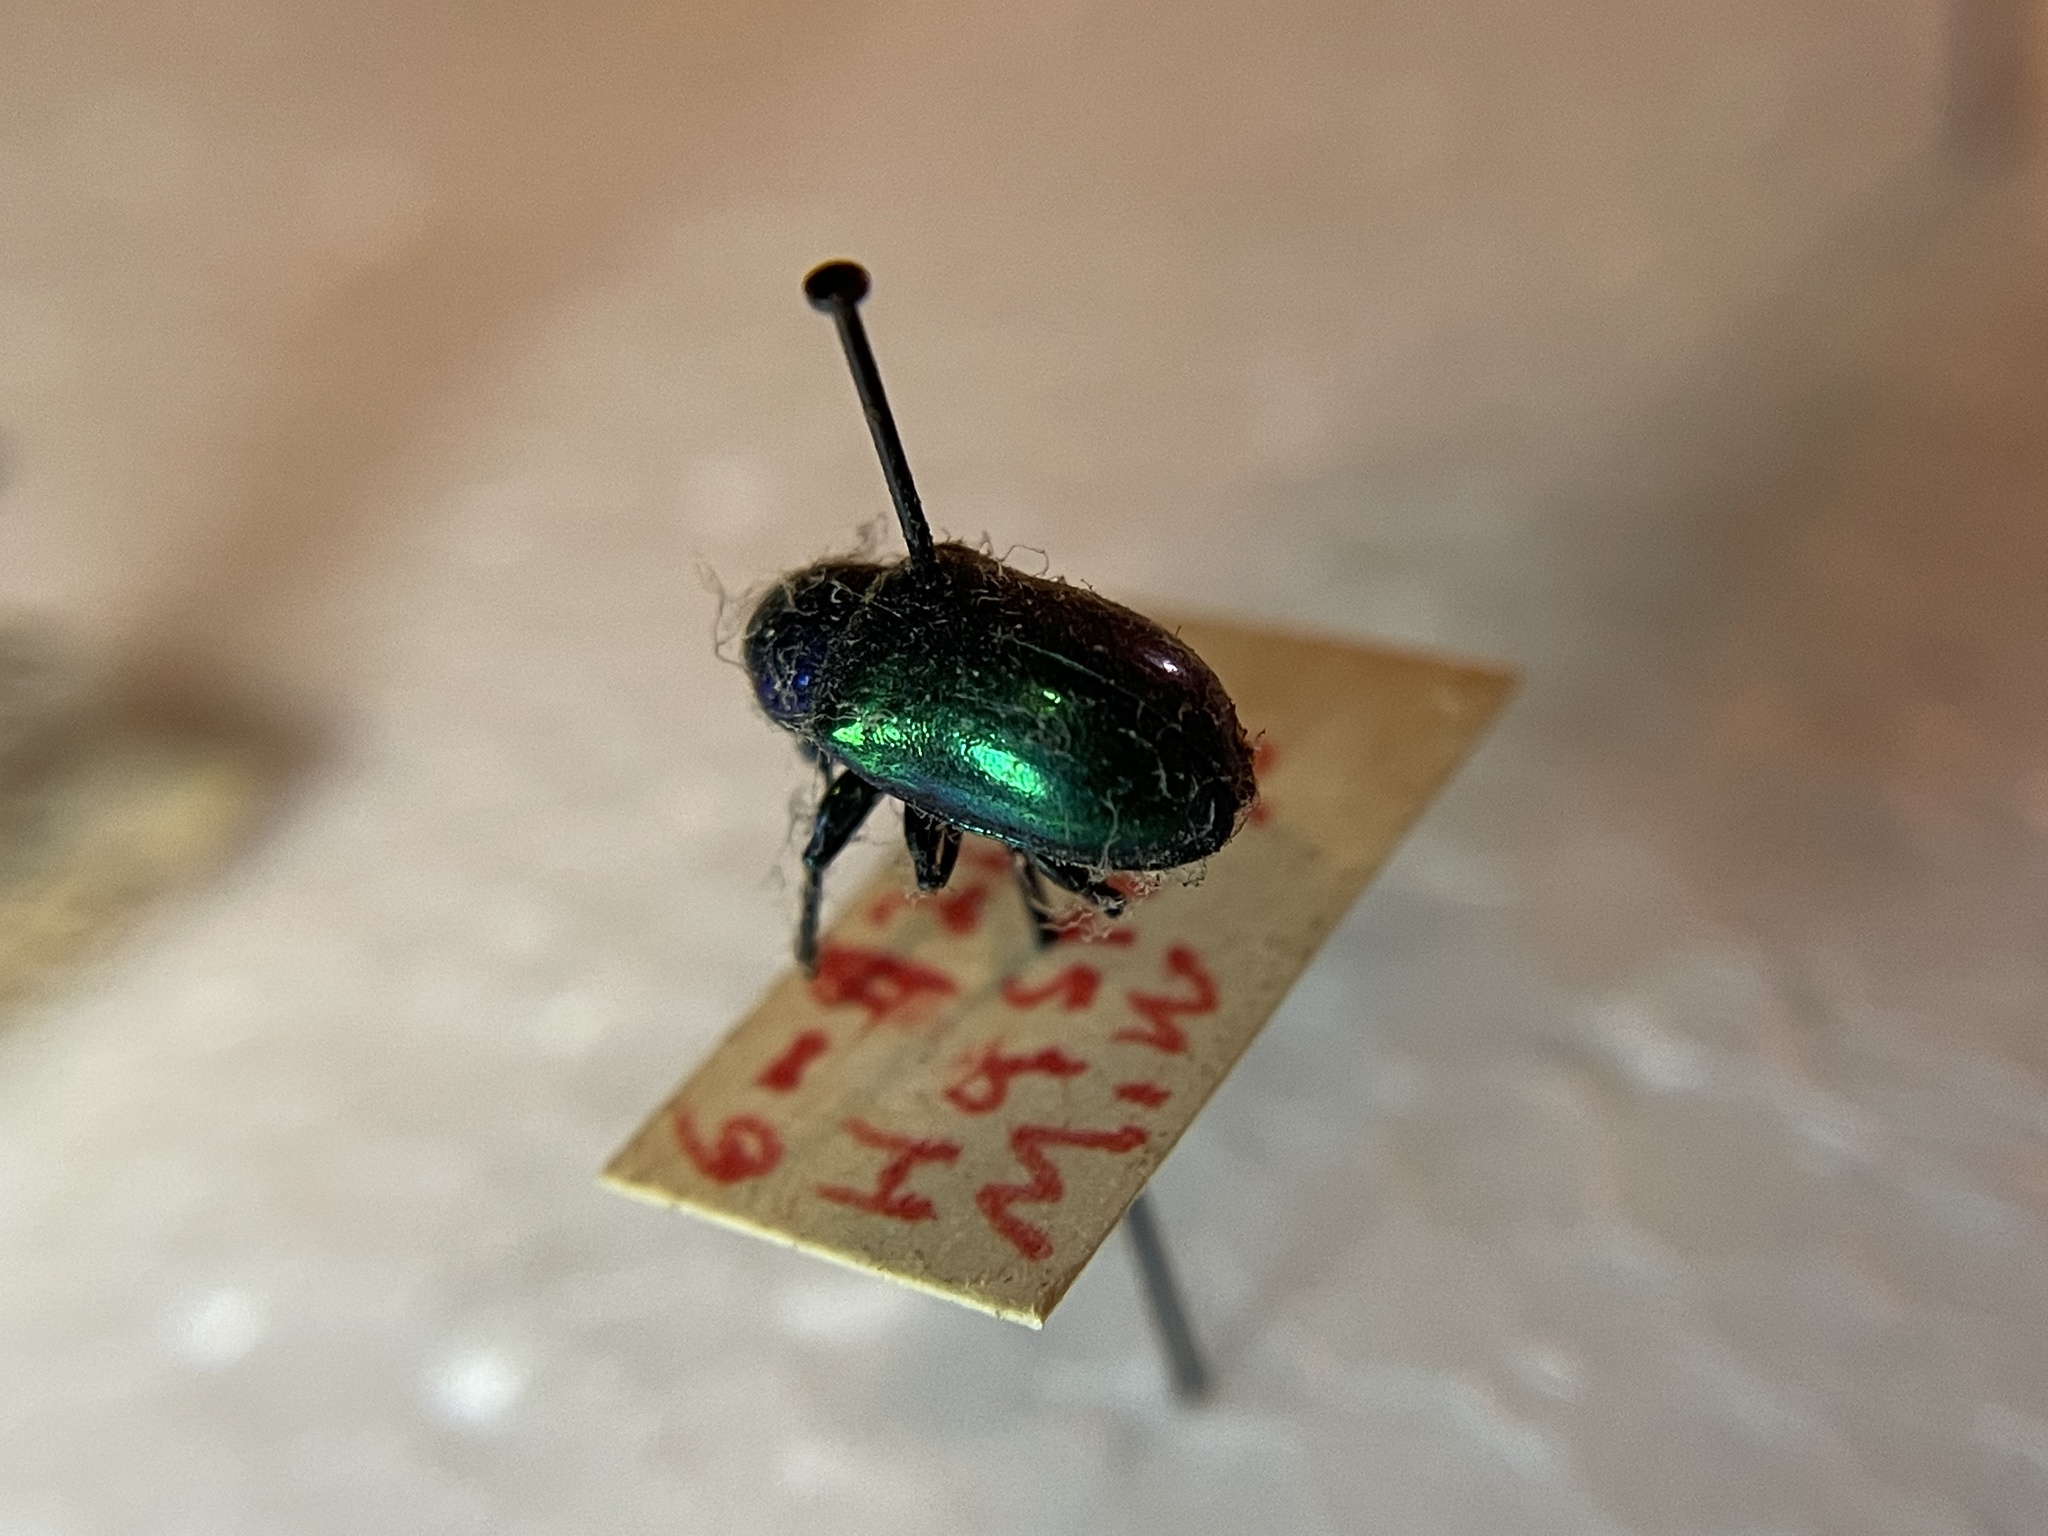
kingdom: Animalia
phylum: Arthropoda
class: Insecta
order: Coleoptera
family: Chrysomelidae
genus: Chrysochus
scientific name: Chrysochus auratus
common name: Dogbane leaf beetle
